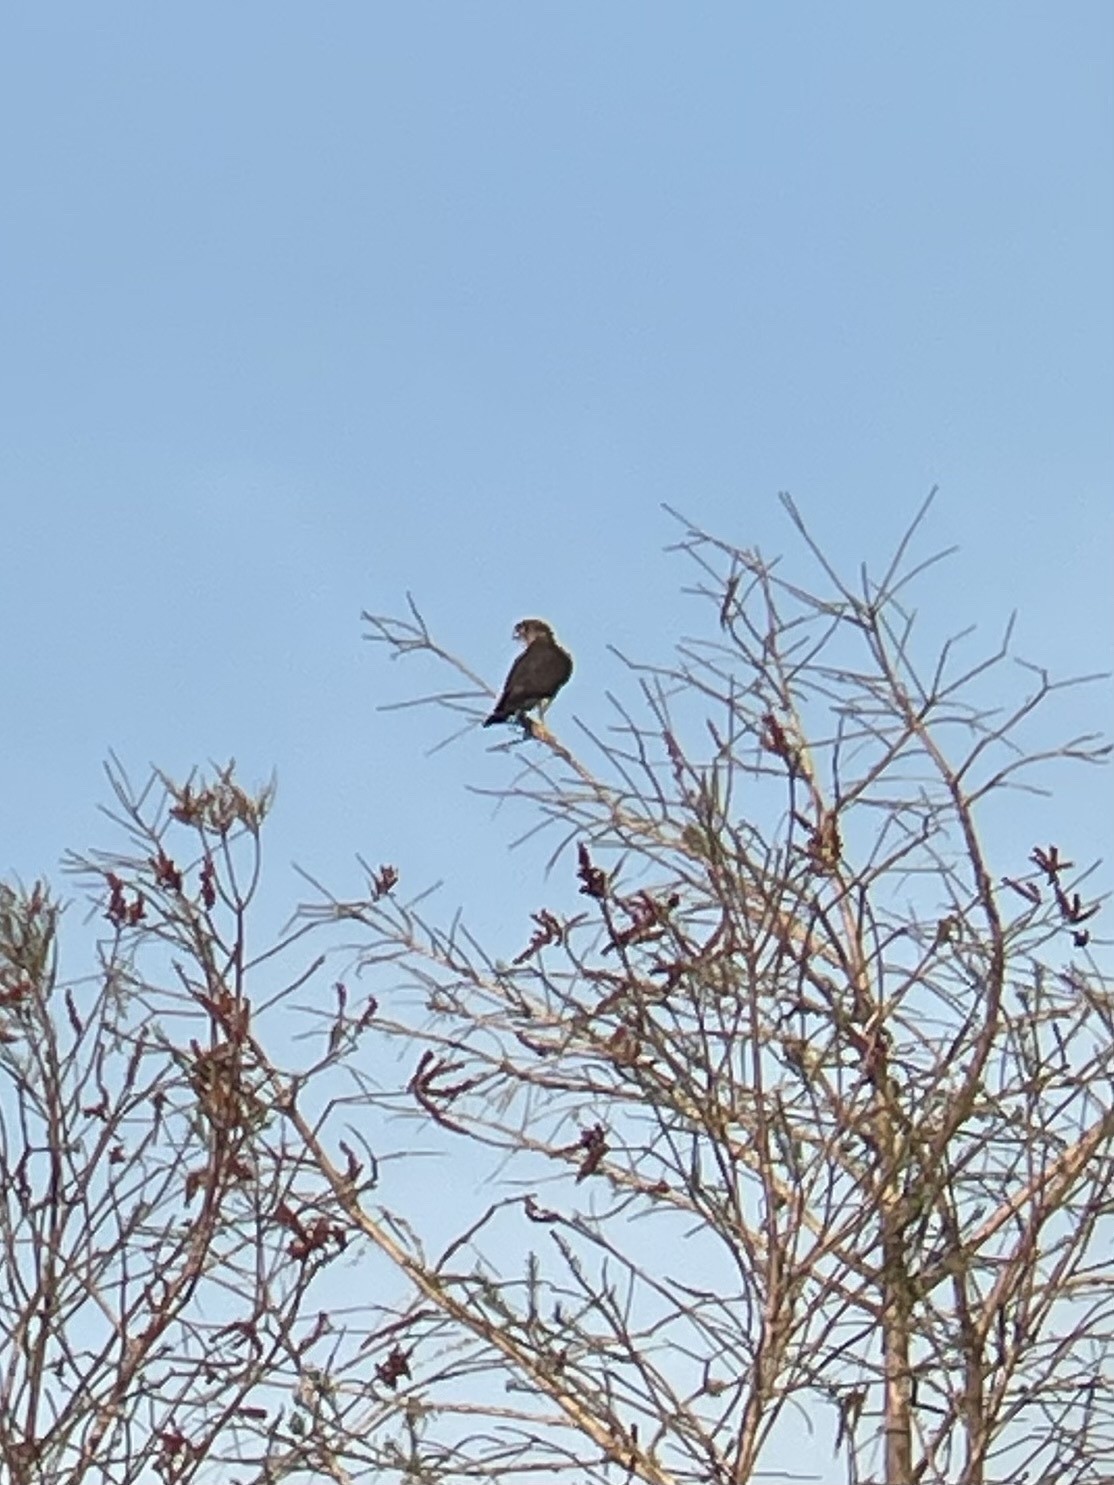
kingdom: Animalia
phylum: Chordata
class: Aves
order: Falconiformes
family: Falconidae
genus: Falco
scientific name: Falco columbarius
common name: Merlin
